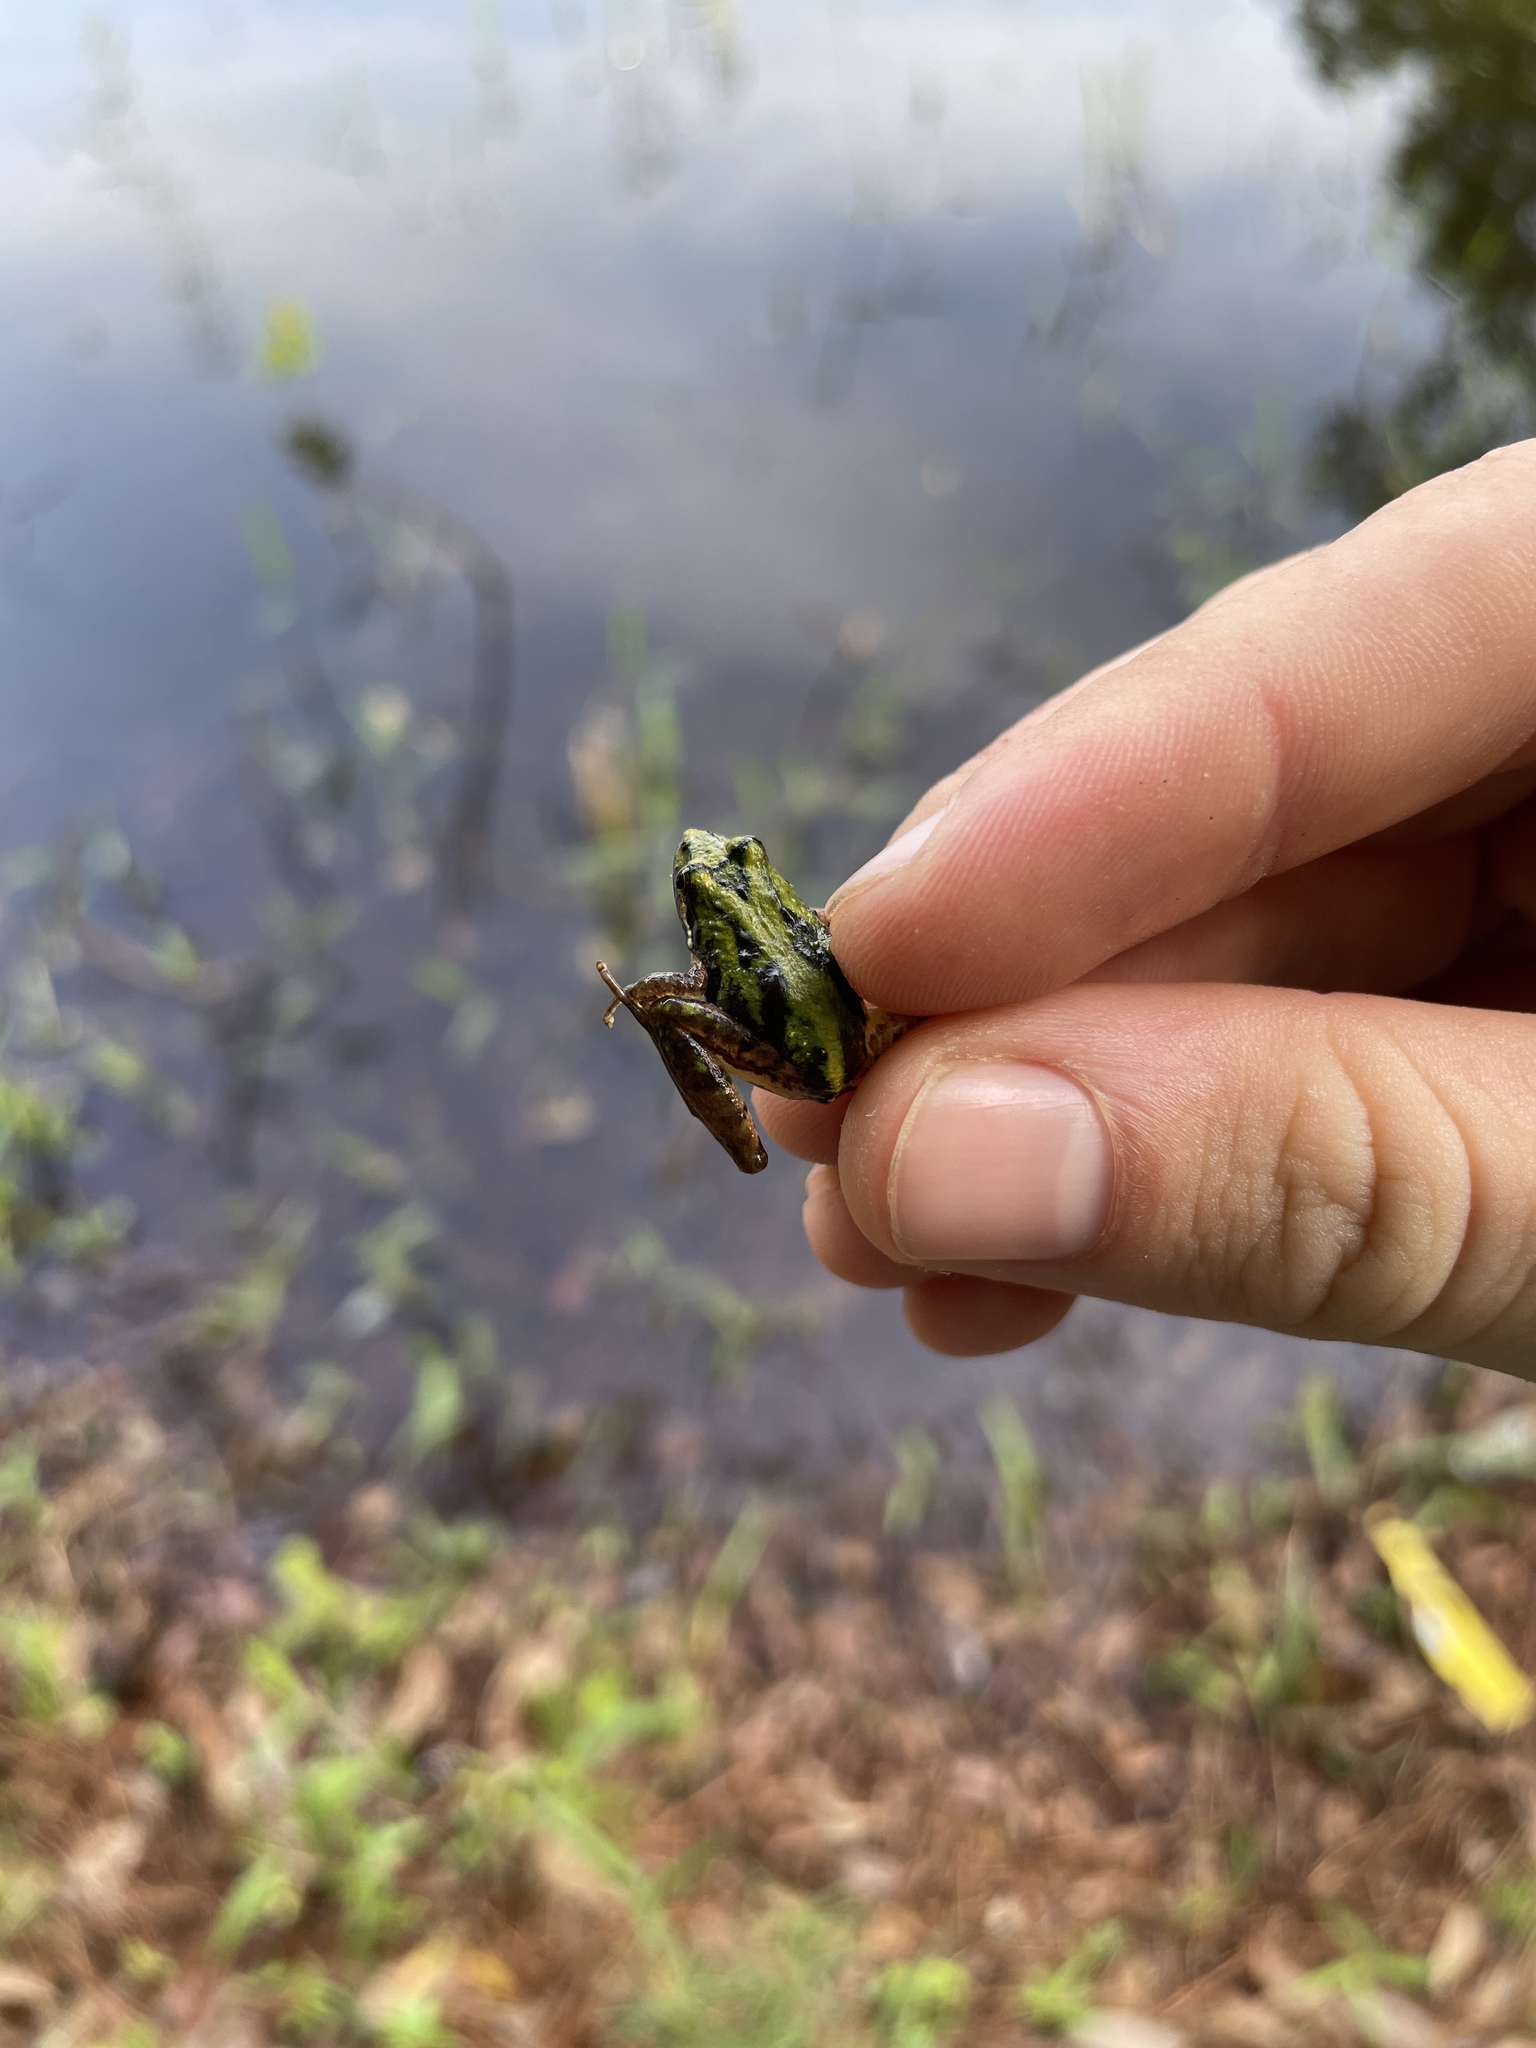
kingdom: Animalia
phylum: Chordata
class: Amphibia
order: Anura
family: Hylidae
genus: Acris
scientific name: Acris gryllus
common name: Southern cricket frog
